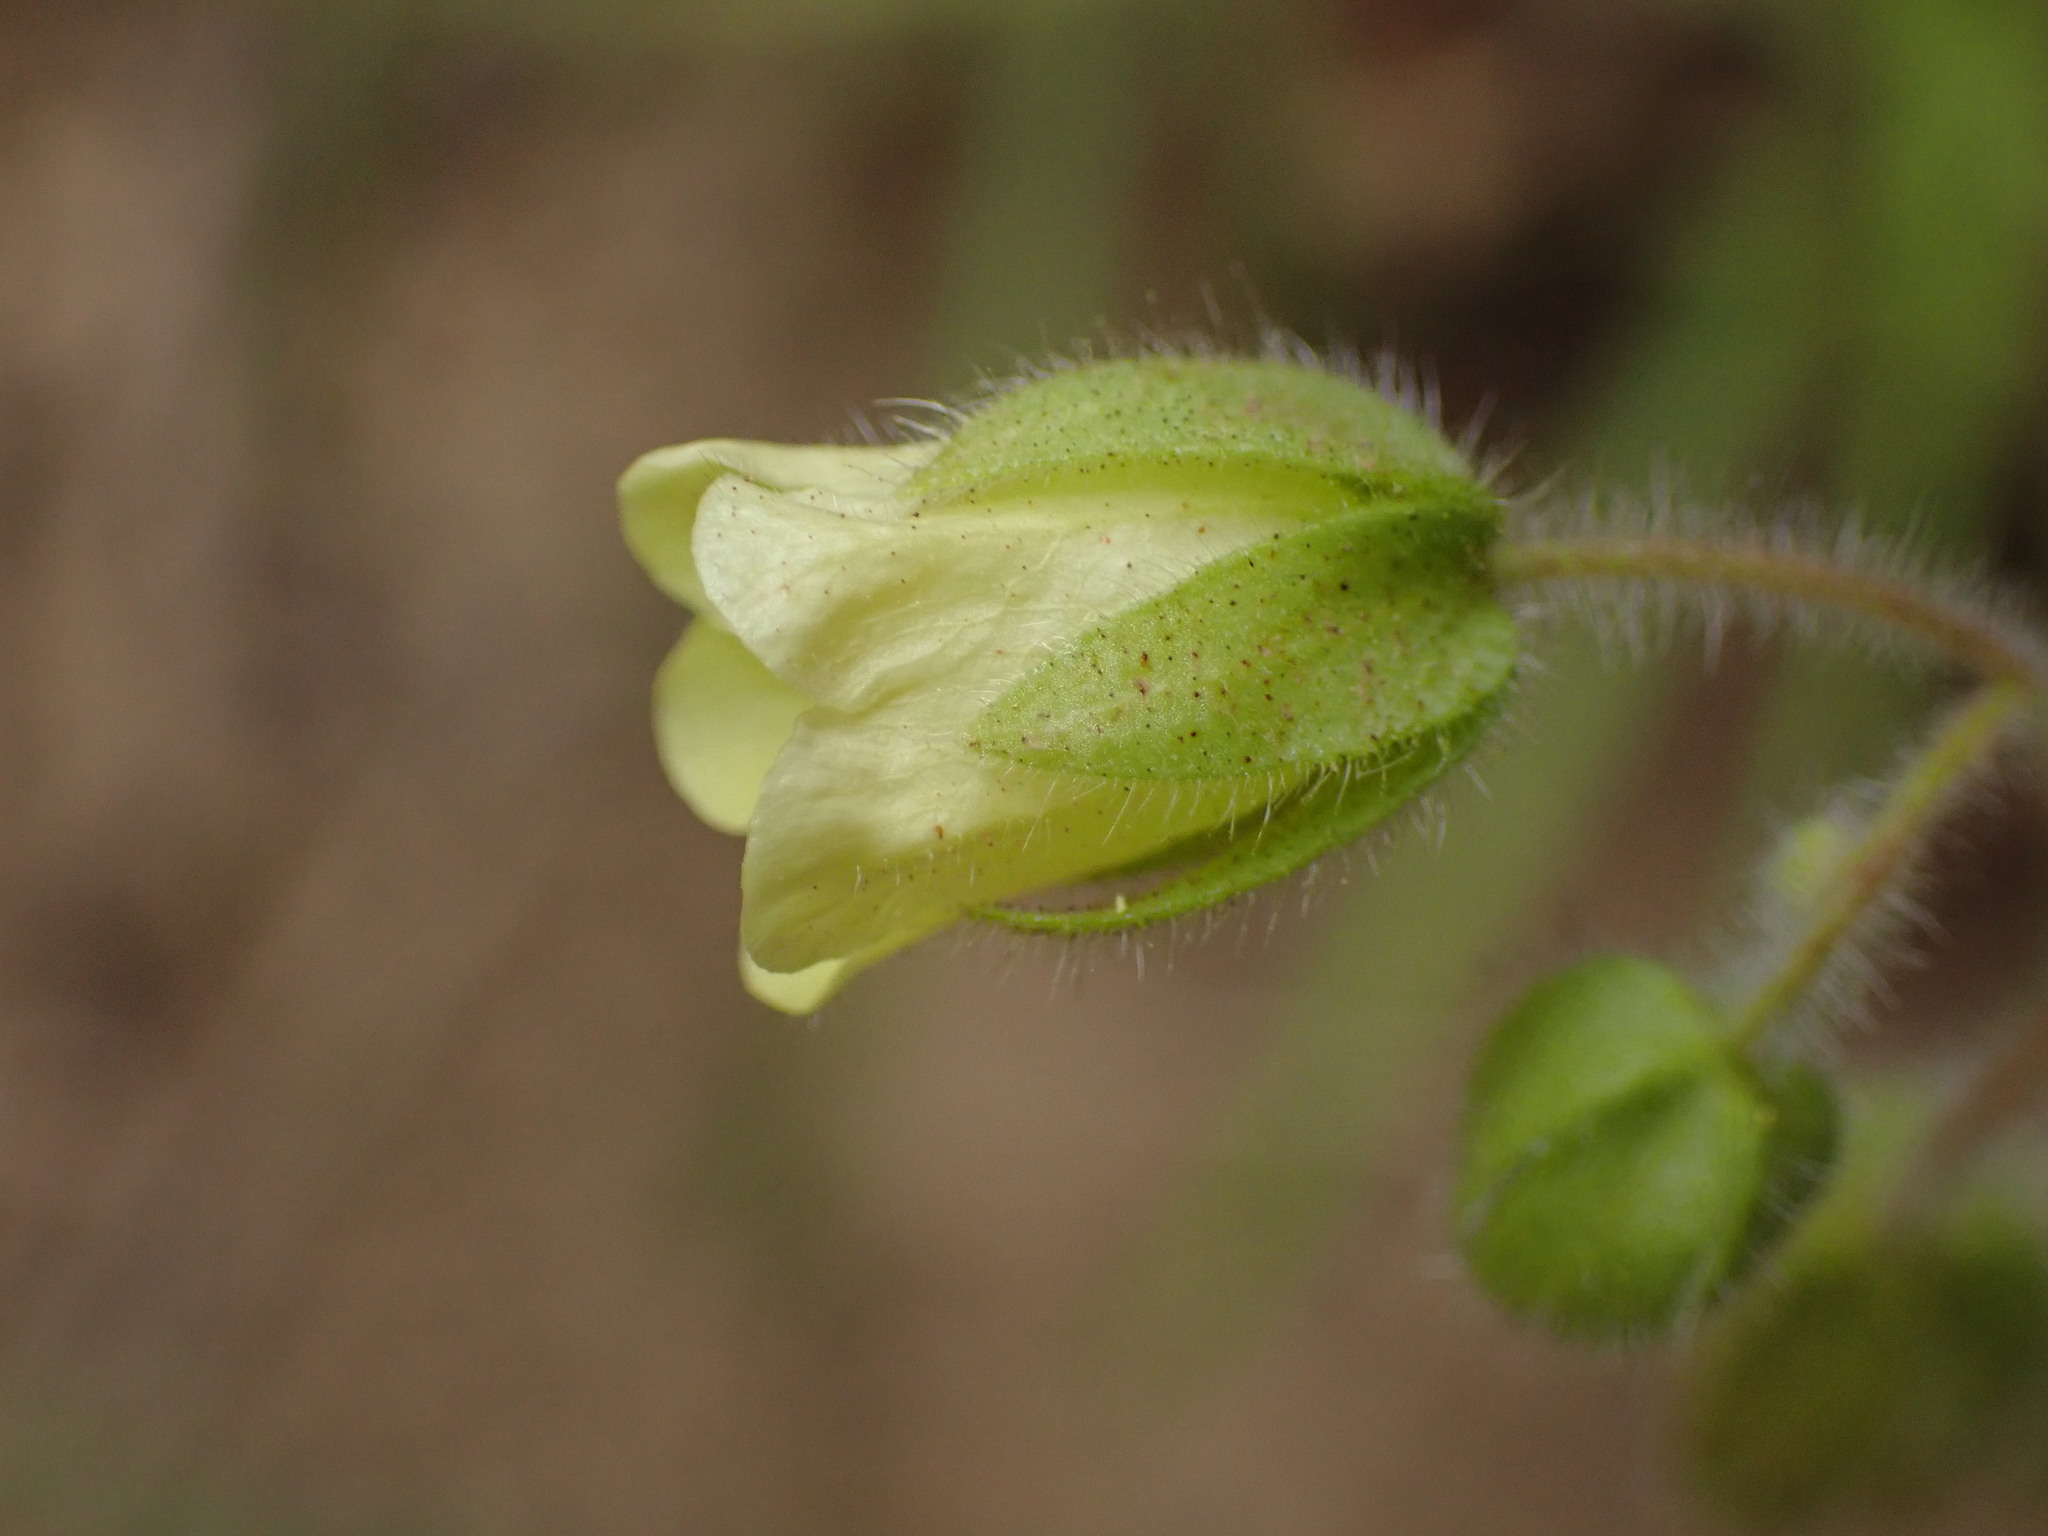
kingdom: Plantae
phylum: Tracheophyta
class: Magnoliopsida
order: Boraginales
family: Hydrophyllaceae
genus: Emmenanthe
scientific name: Emmenanthe penduliflora
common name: Whispering-bells
